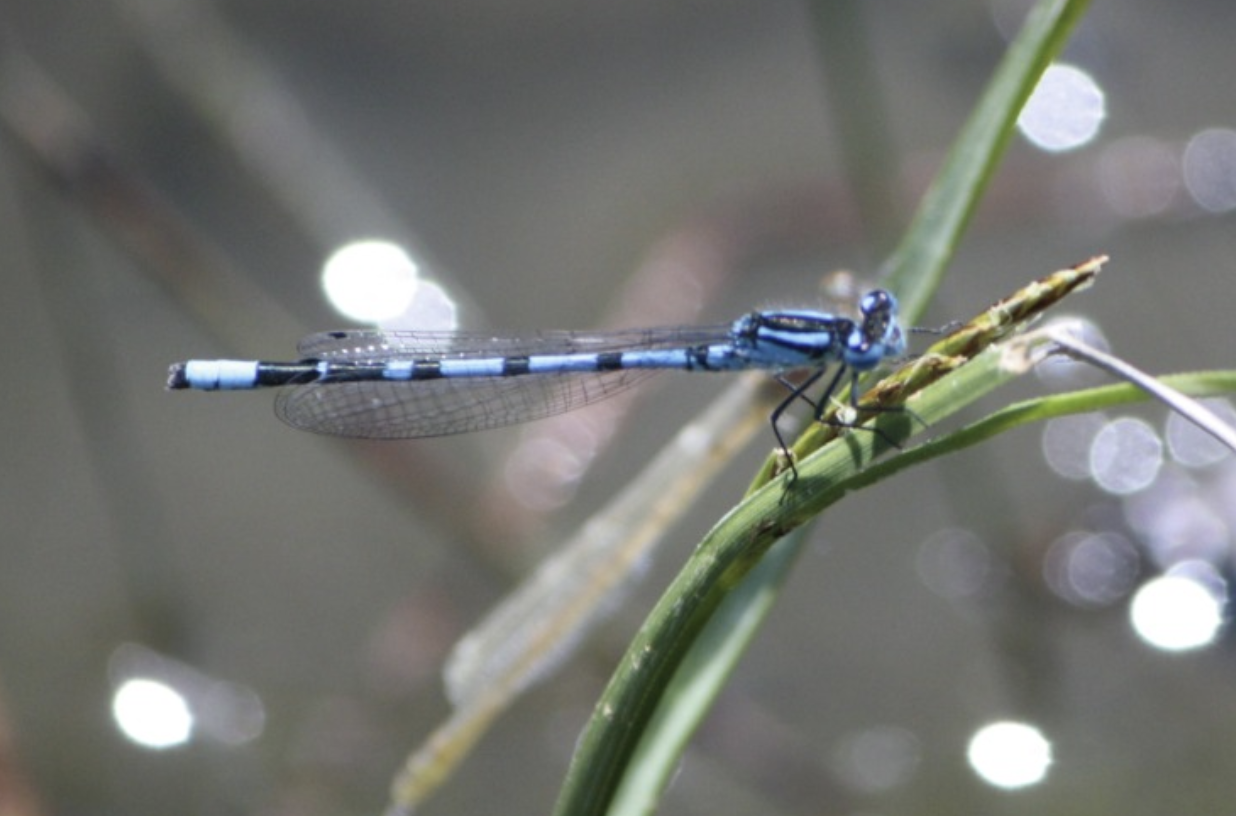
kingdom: Animalia
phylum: Arthropoda
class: Insecta
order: Odonata
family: Coenagrionidae
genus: Enallagma
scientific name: Enallagma cyathigerum
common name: Common blue damselfly
